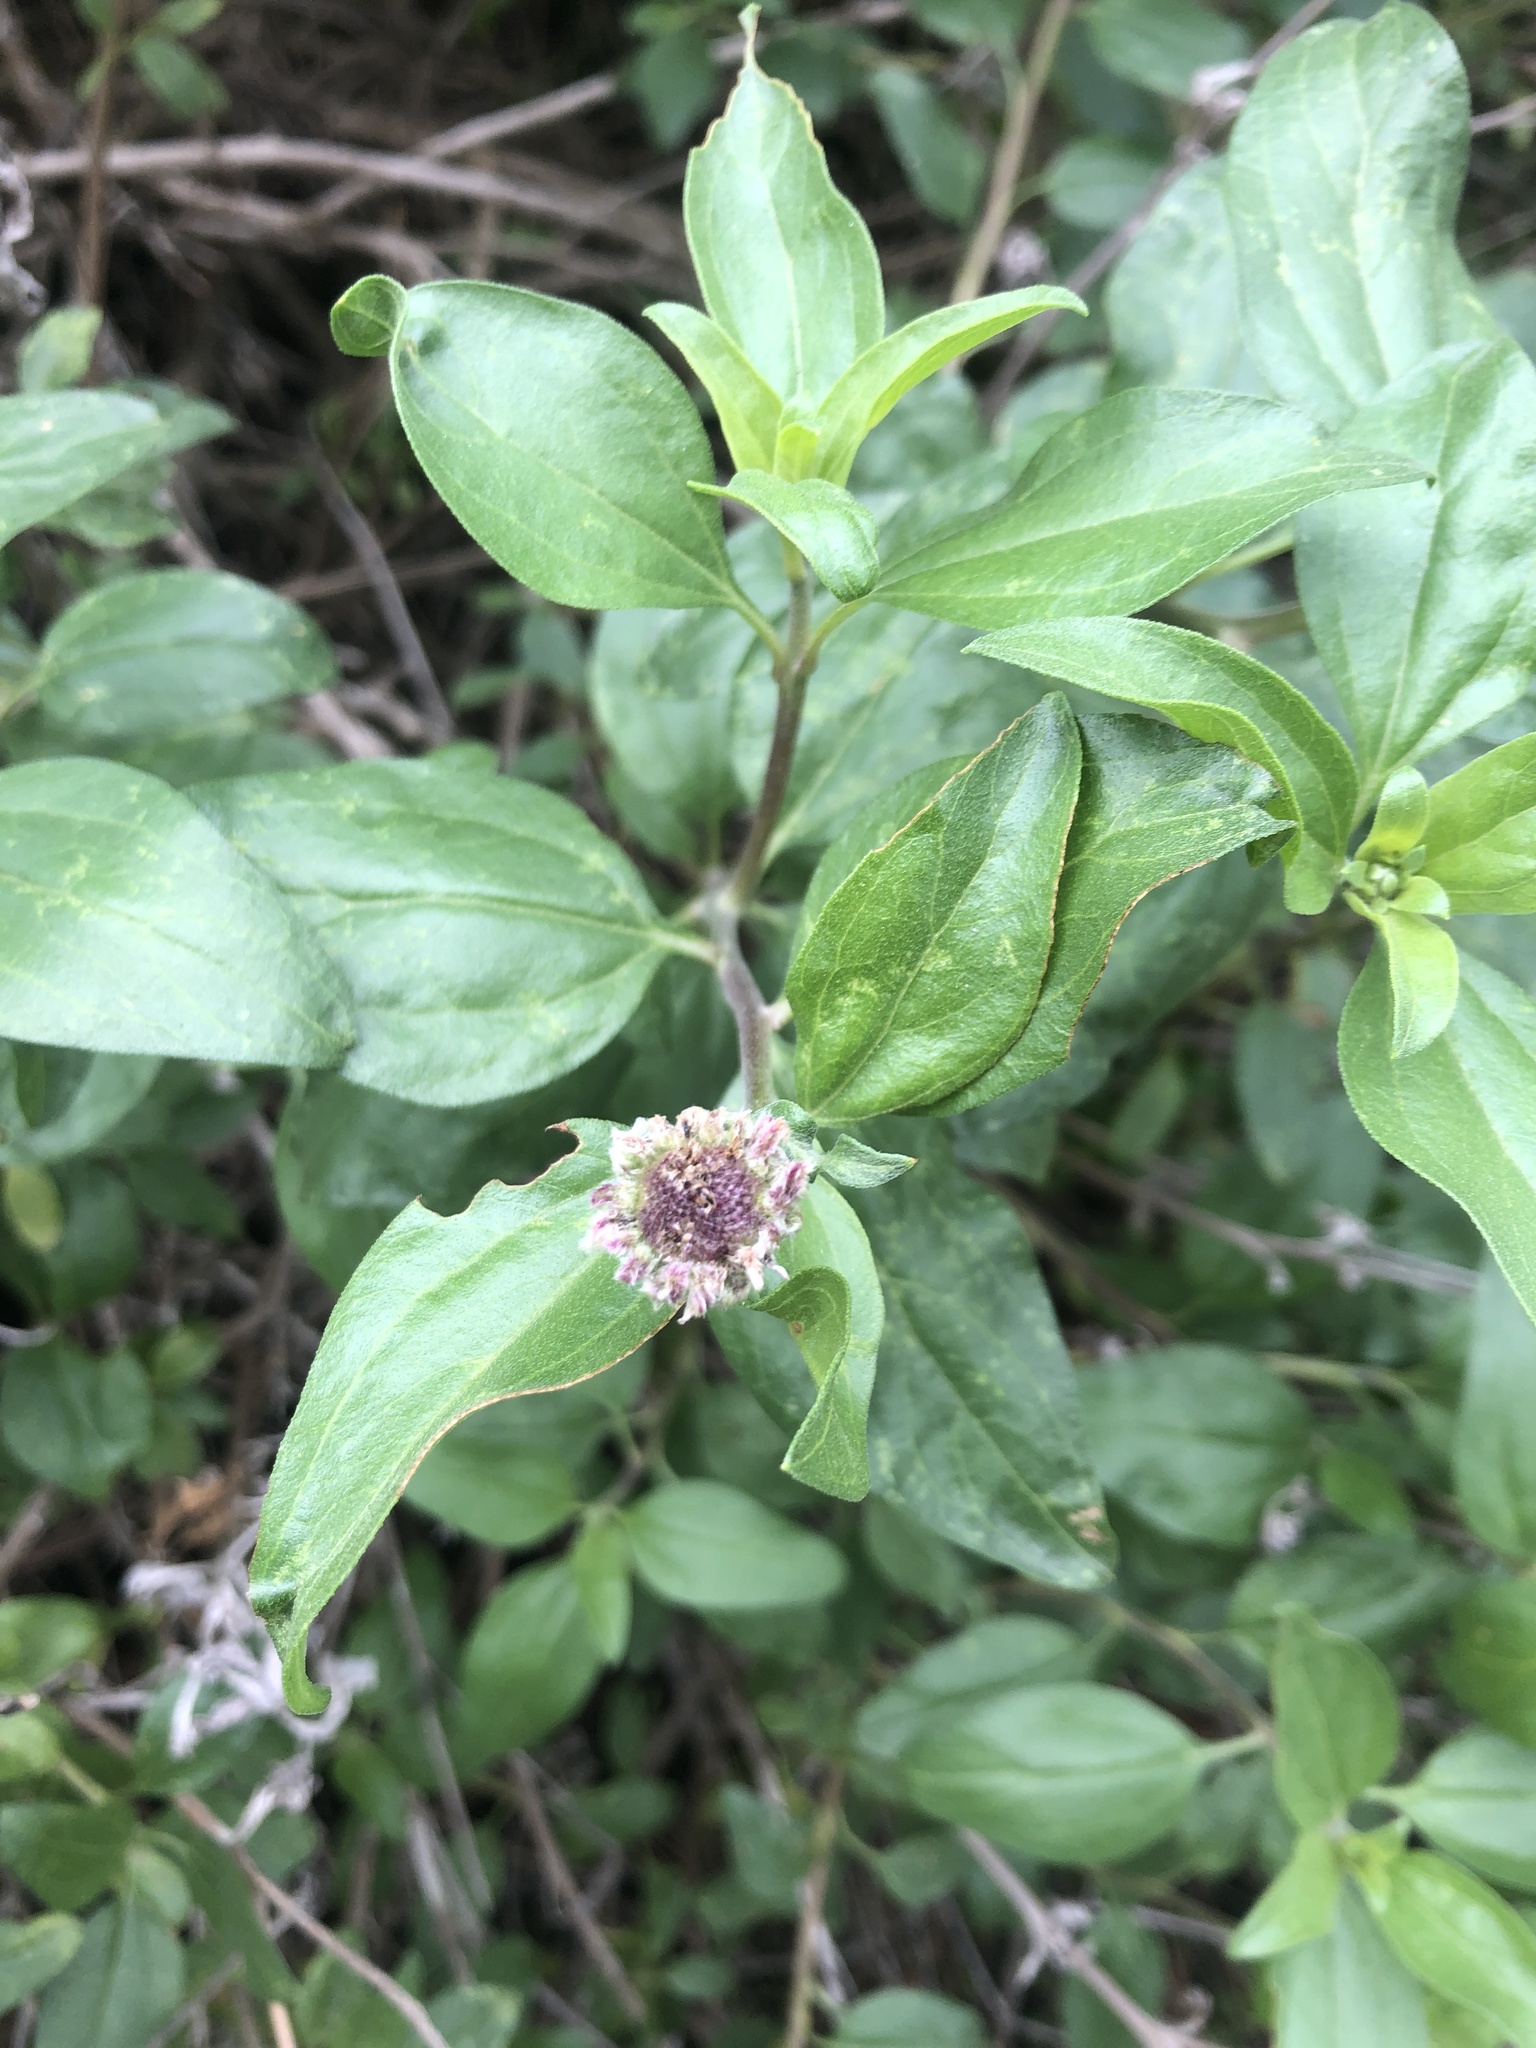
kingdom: Plantae
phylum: Tracheophyta
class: Magnoliopsida
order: Asterales
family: Asteraceae
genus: Encelia
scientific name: Encelia californica
